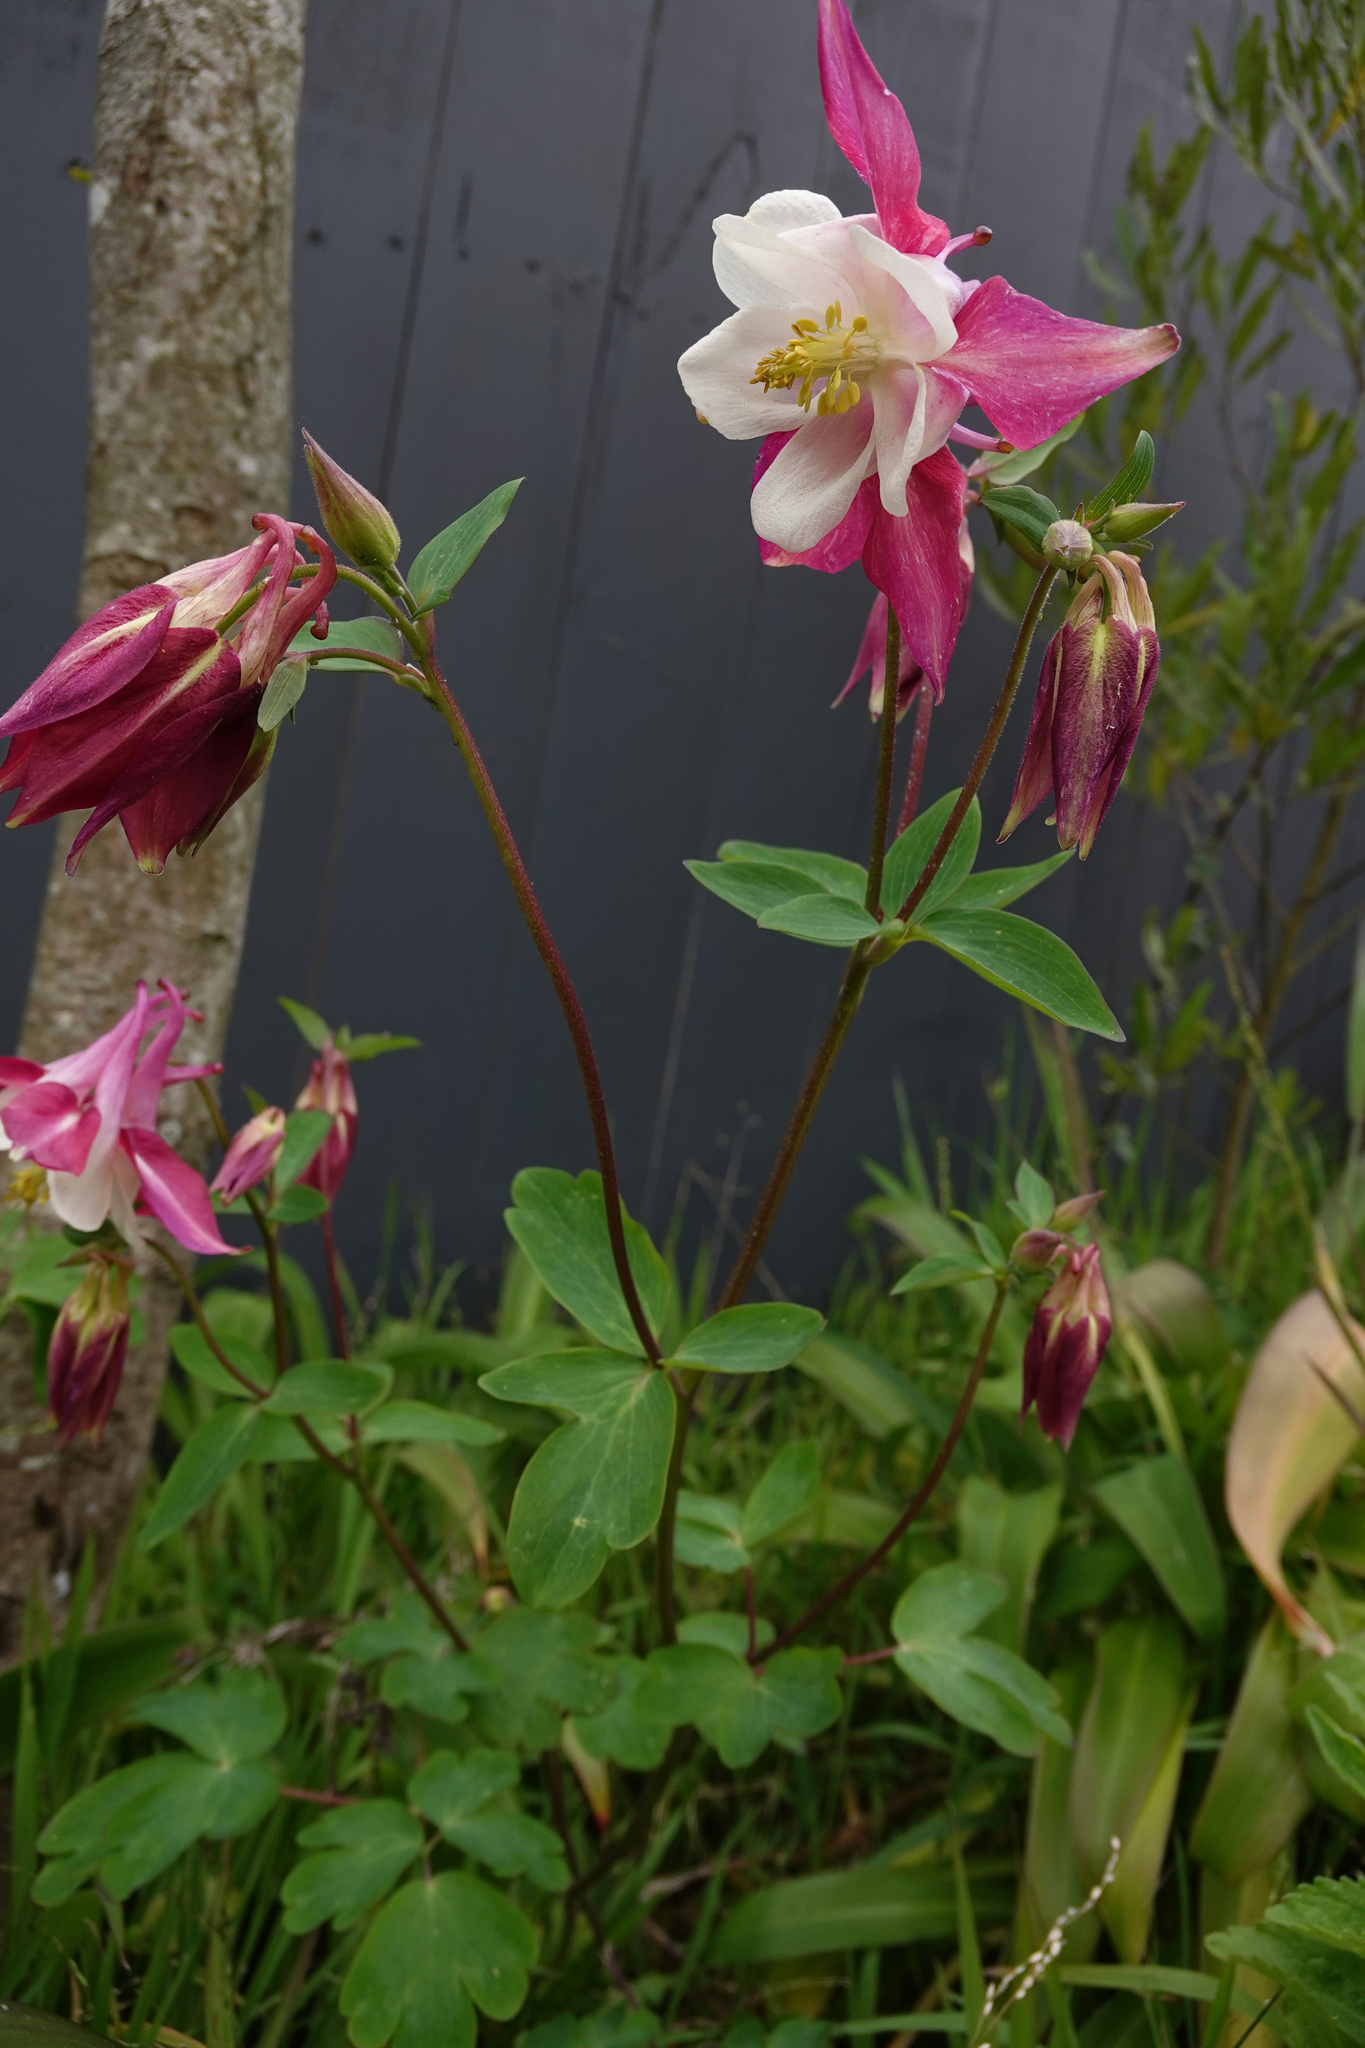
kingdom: Plantae
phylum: Tracheophyta
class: Magnoliopsida
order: Ranunculales
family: Ranunculaceae
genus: Aquilegia
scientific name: Aquilegia vulgaris
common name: Columbine
